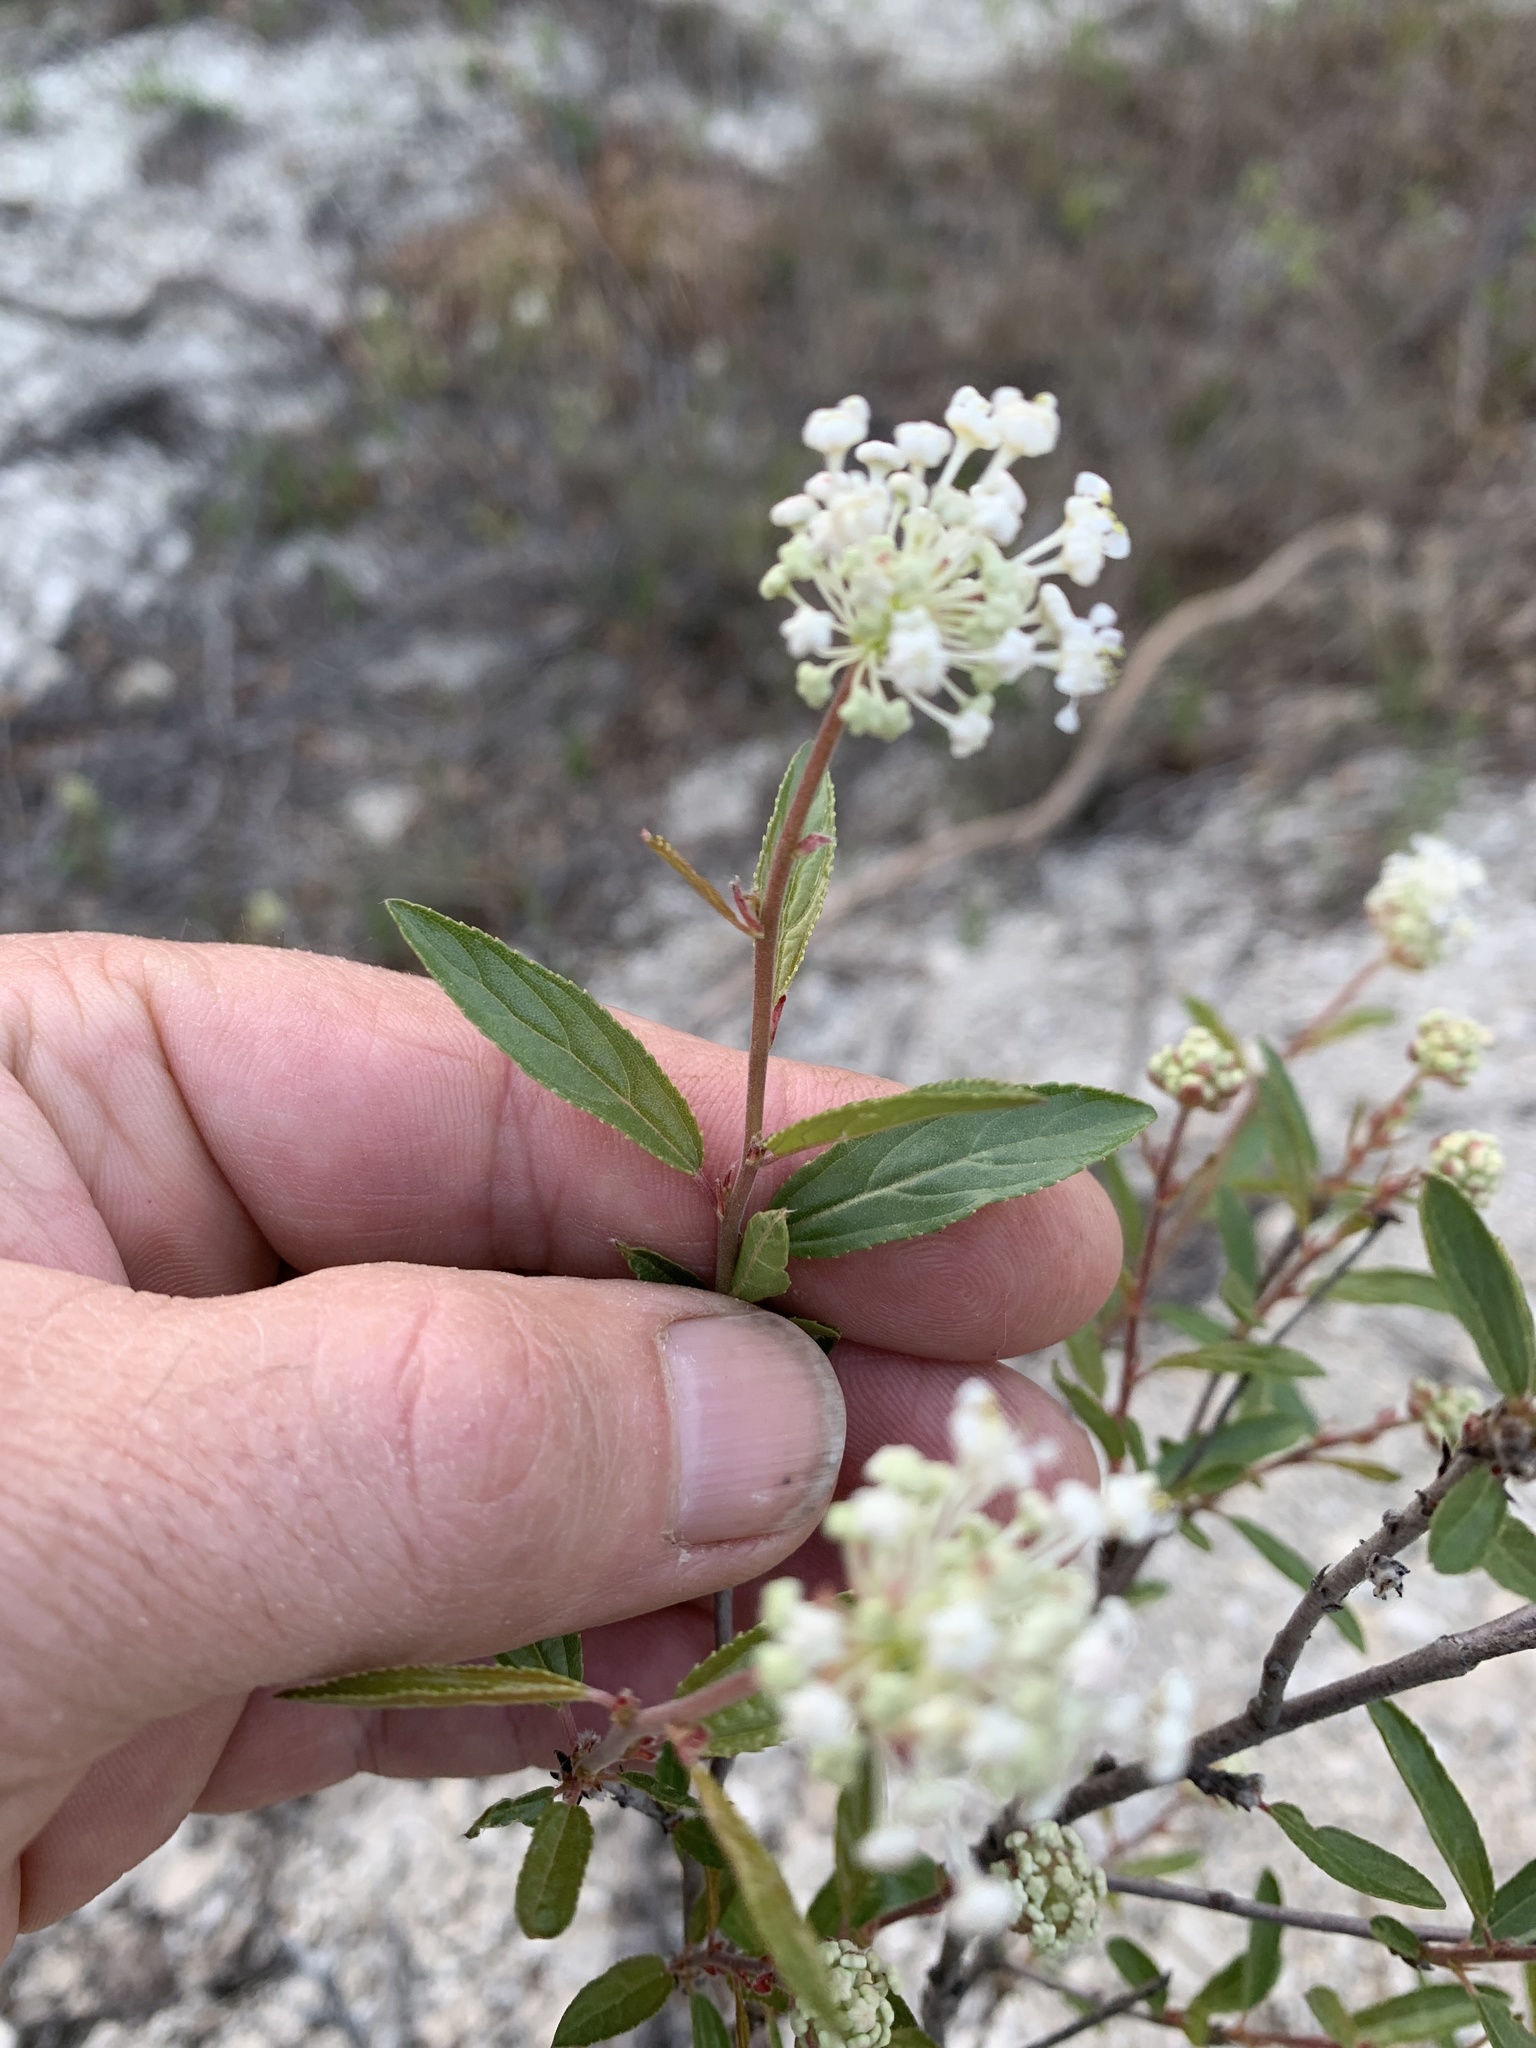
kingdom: Plantae
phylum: Tracheophyta
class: Magnoliopsida
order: Rosales
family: Rhamnaceae
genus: Ceanothus
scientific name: Ceanothus herbaceus
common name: Inland ceanothus
